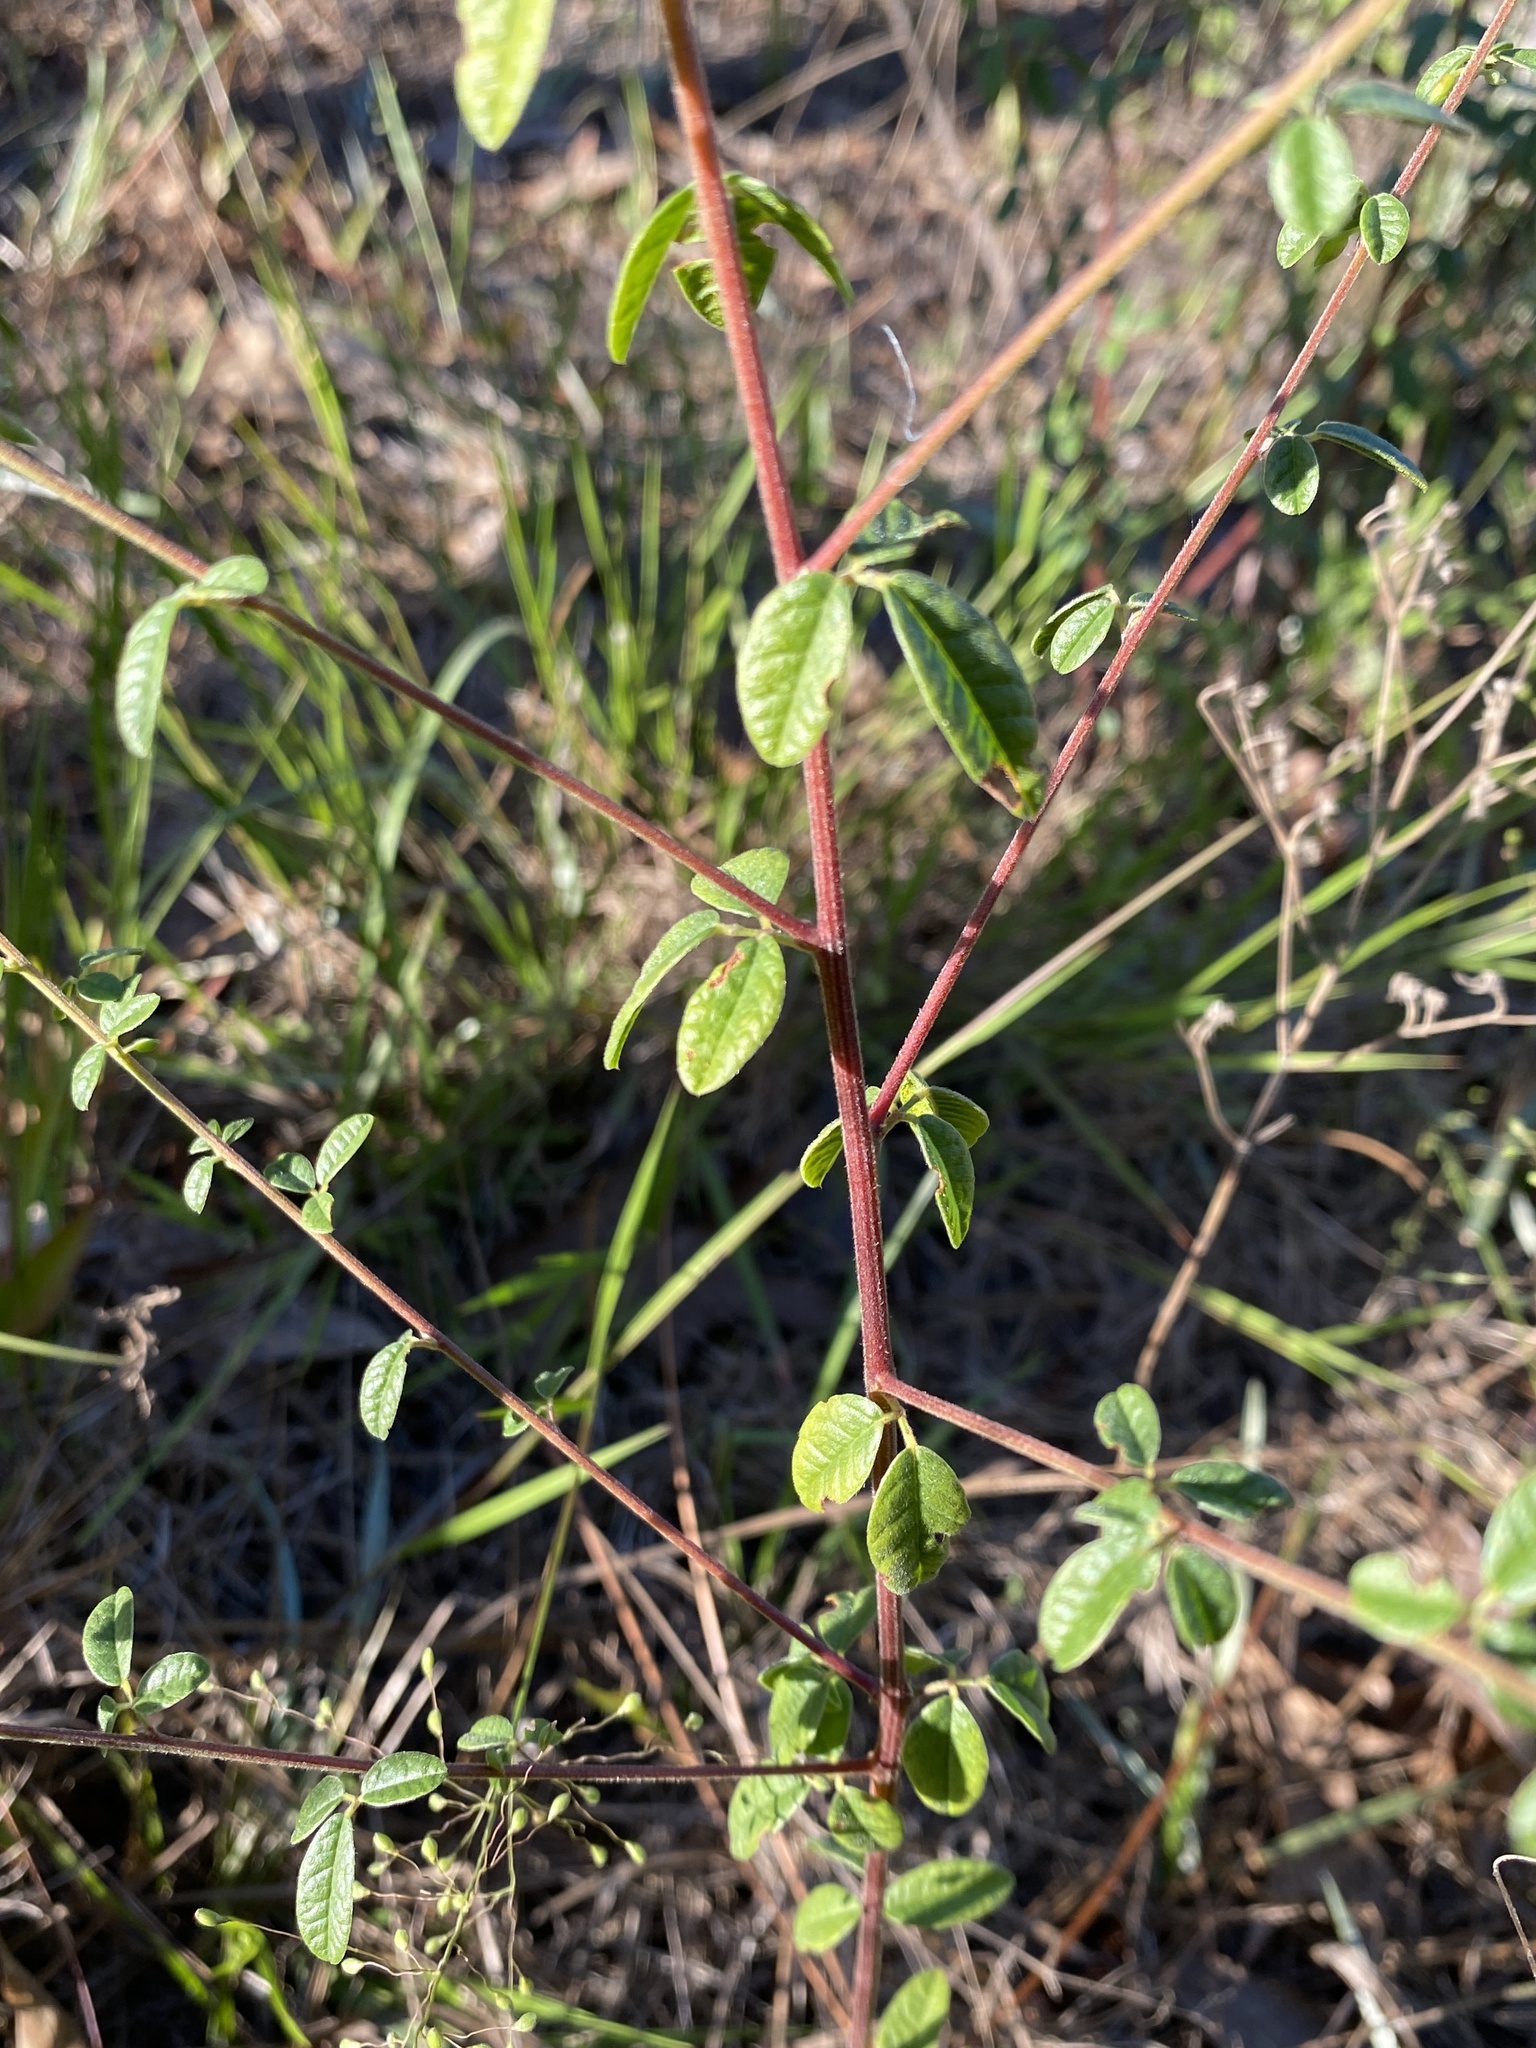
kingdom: Plantae
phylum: Tracheophyta
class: Magnoliopsida
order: Fabales
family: Fabaceae
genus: Rhynchosia
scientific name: Rhynchosia cytisoides
